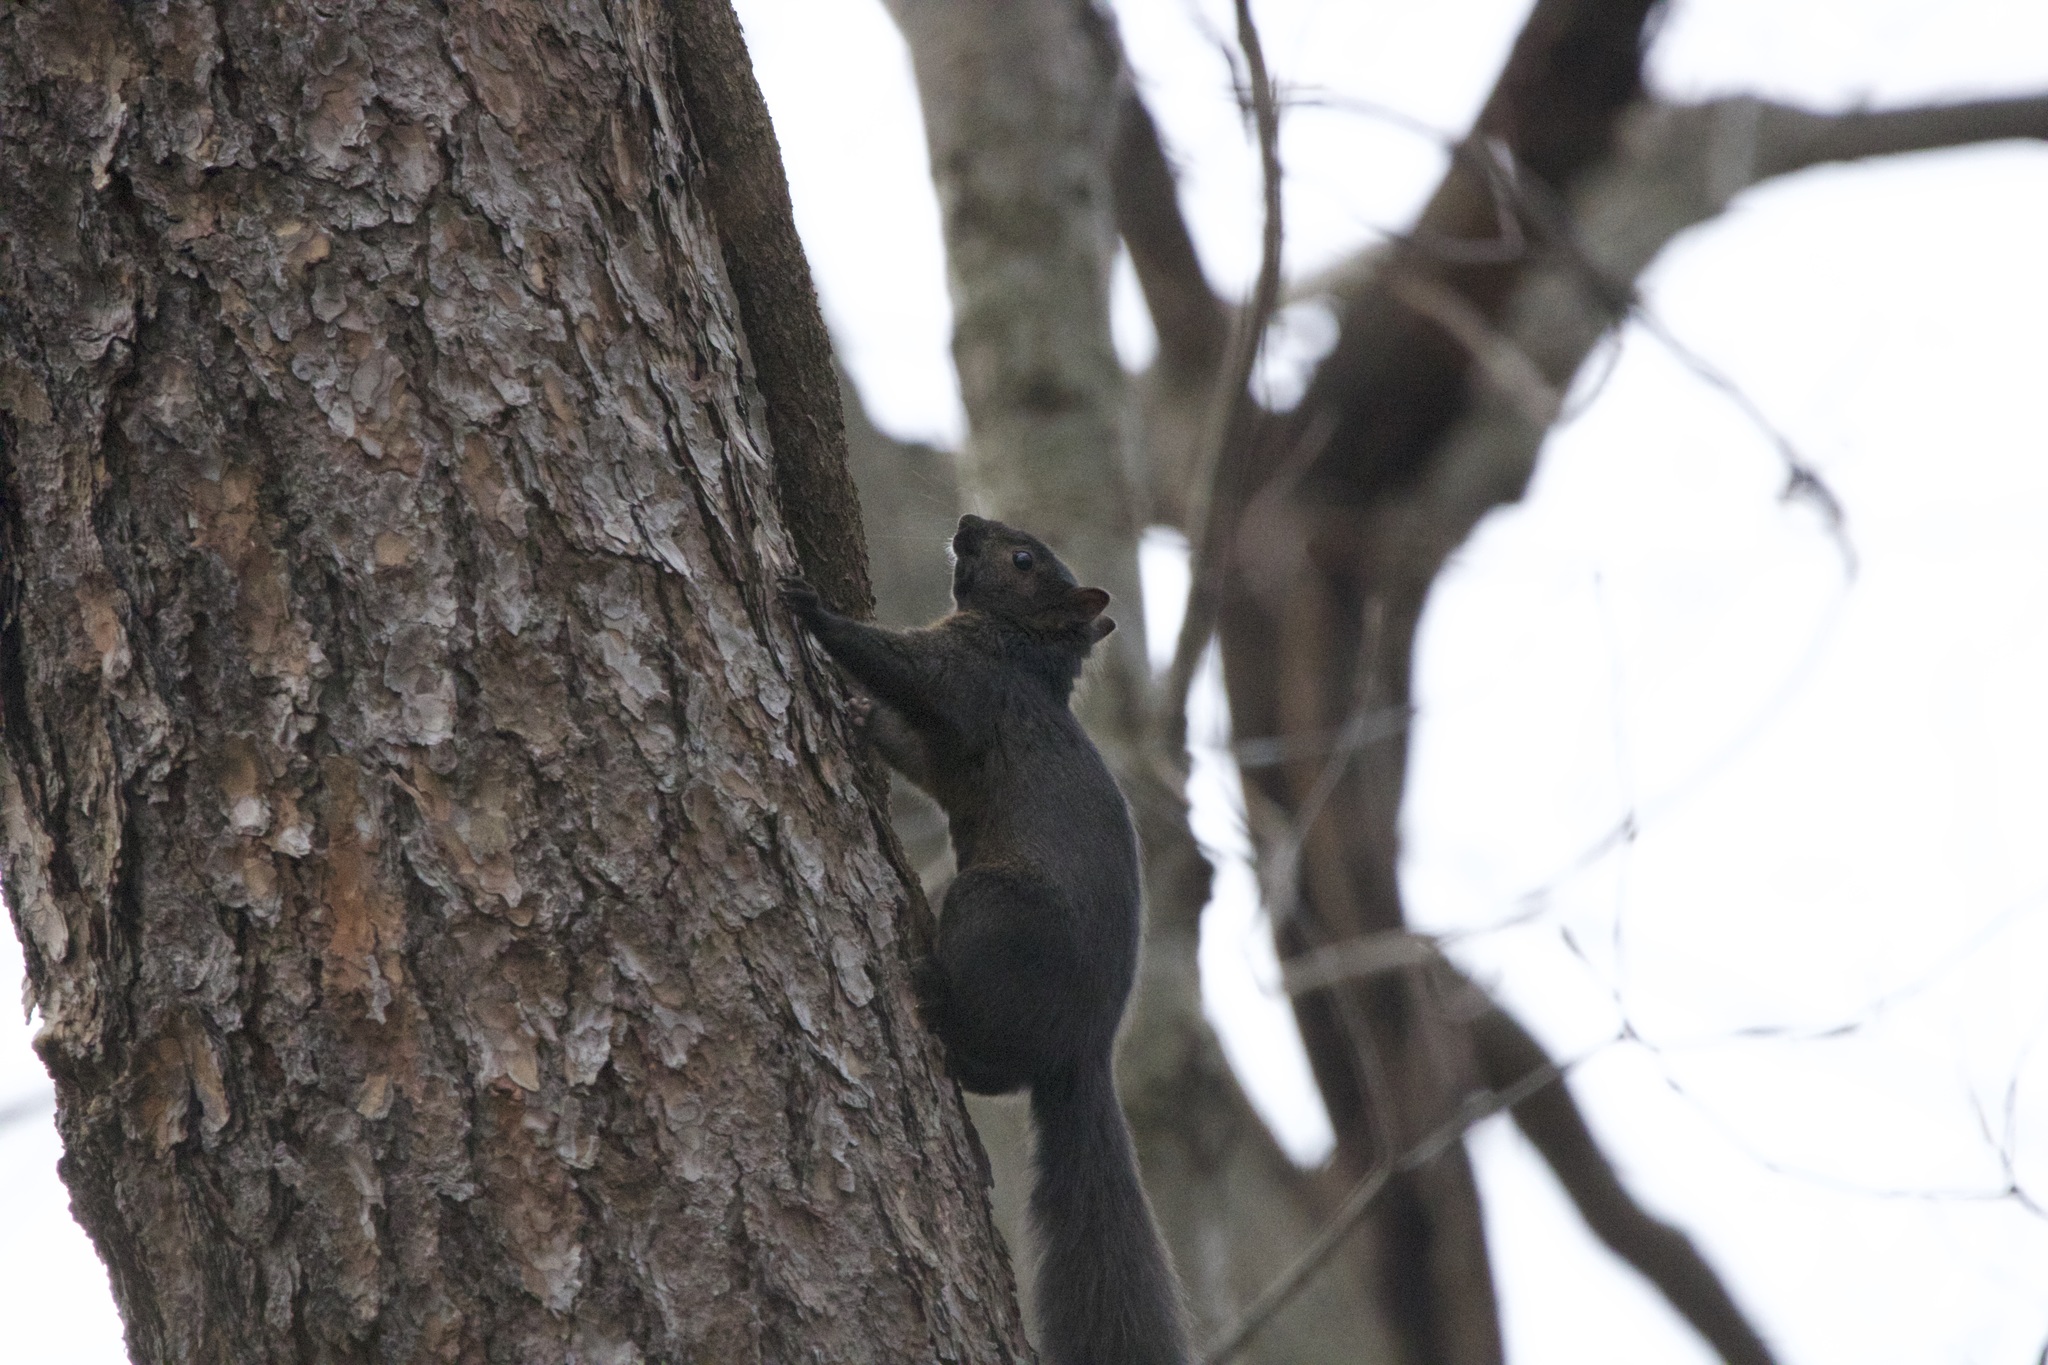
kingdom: Animalia
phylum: Chordata
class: Mammalia
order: Rodentia
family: Sciuridae
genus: Sciurus
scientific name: Sciurus carolinensis
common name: Eastern gray squirrel
